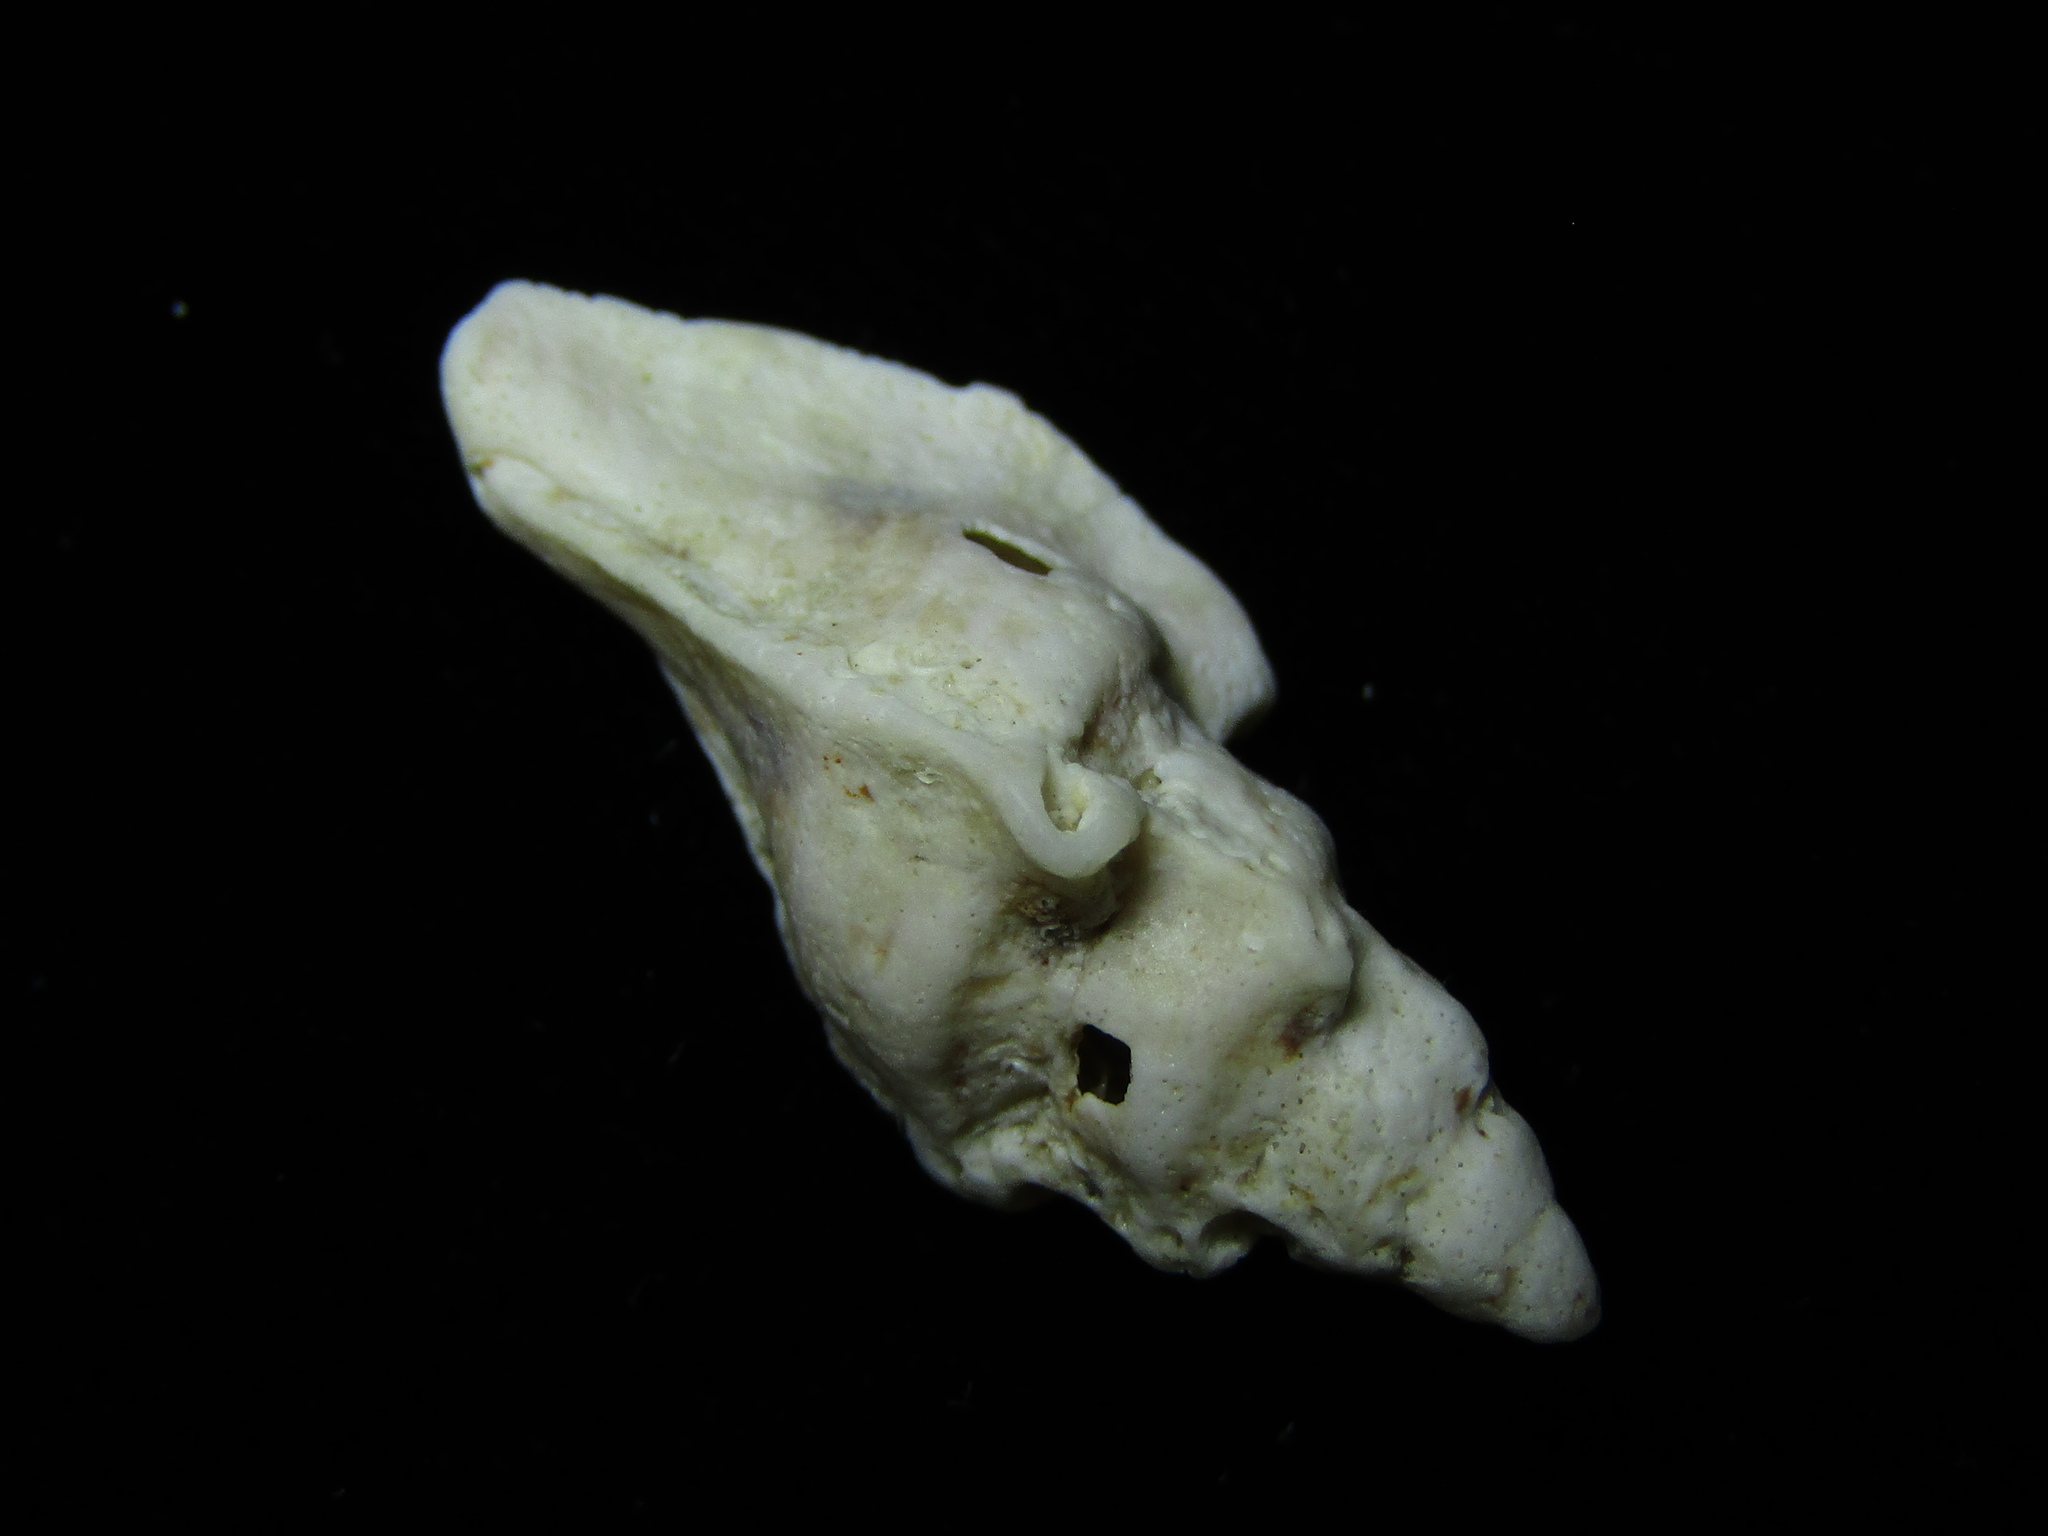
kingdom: Animalia
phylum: Mollusca
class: Gastropoda
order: Neogastropoda
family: Muricidae
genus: Prototyphis
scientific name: Prototyphis eos
